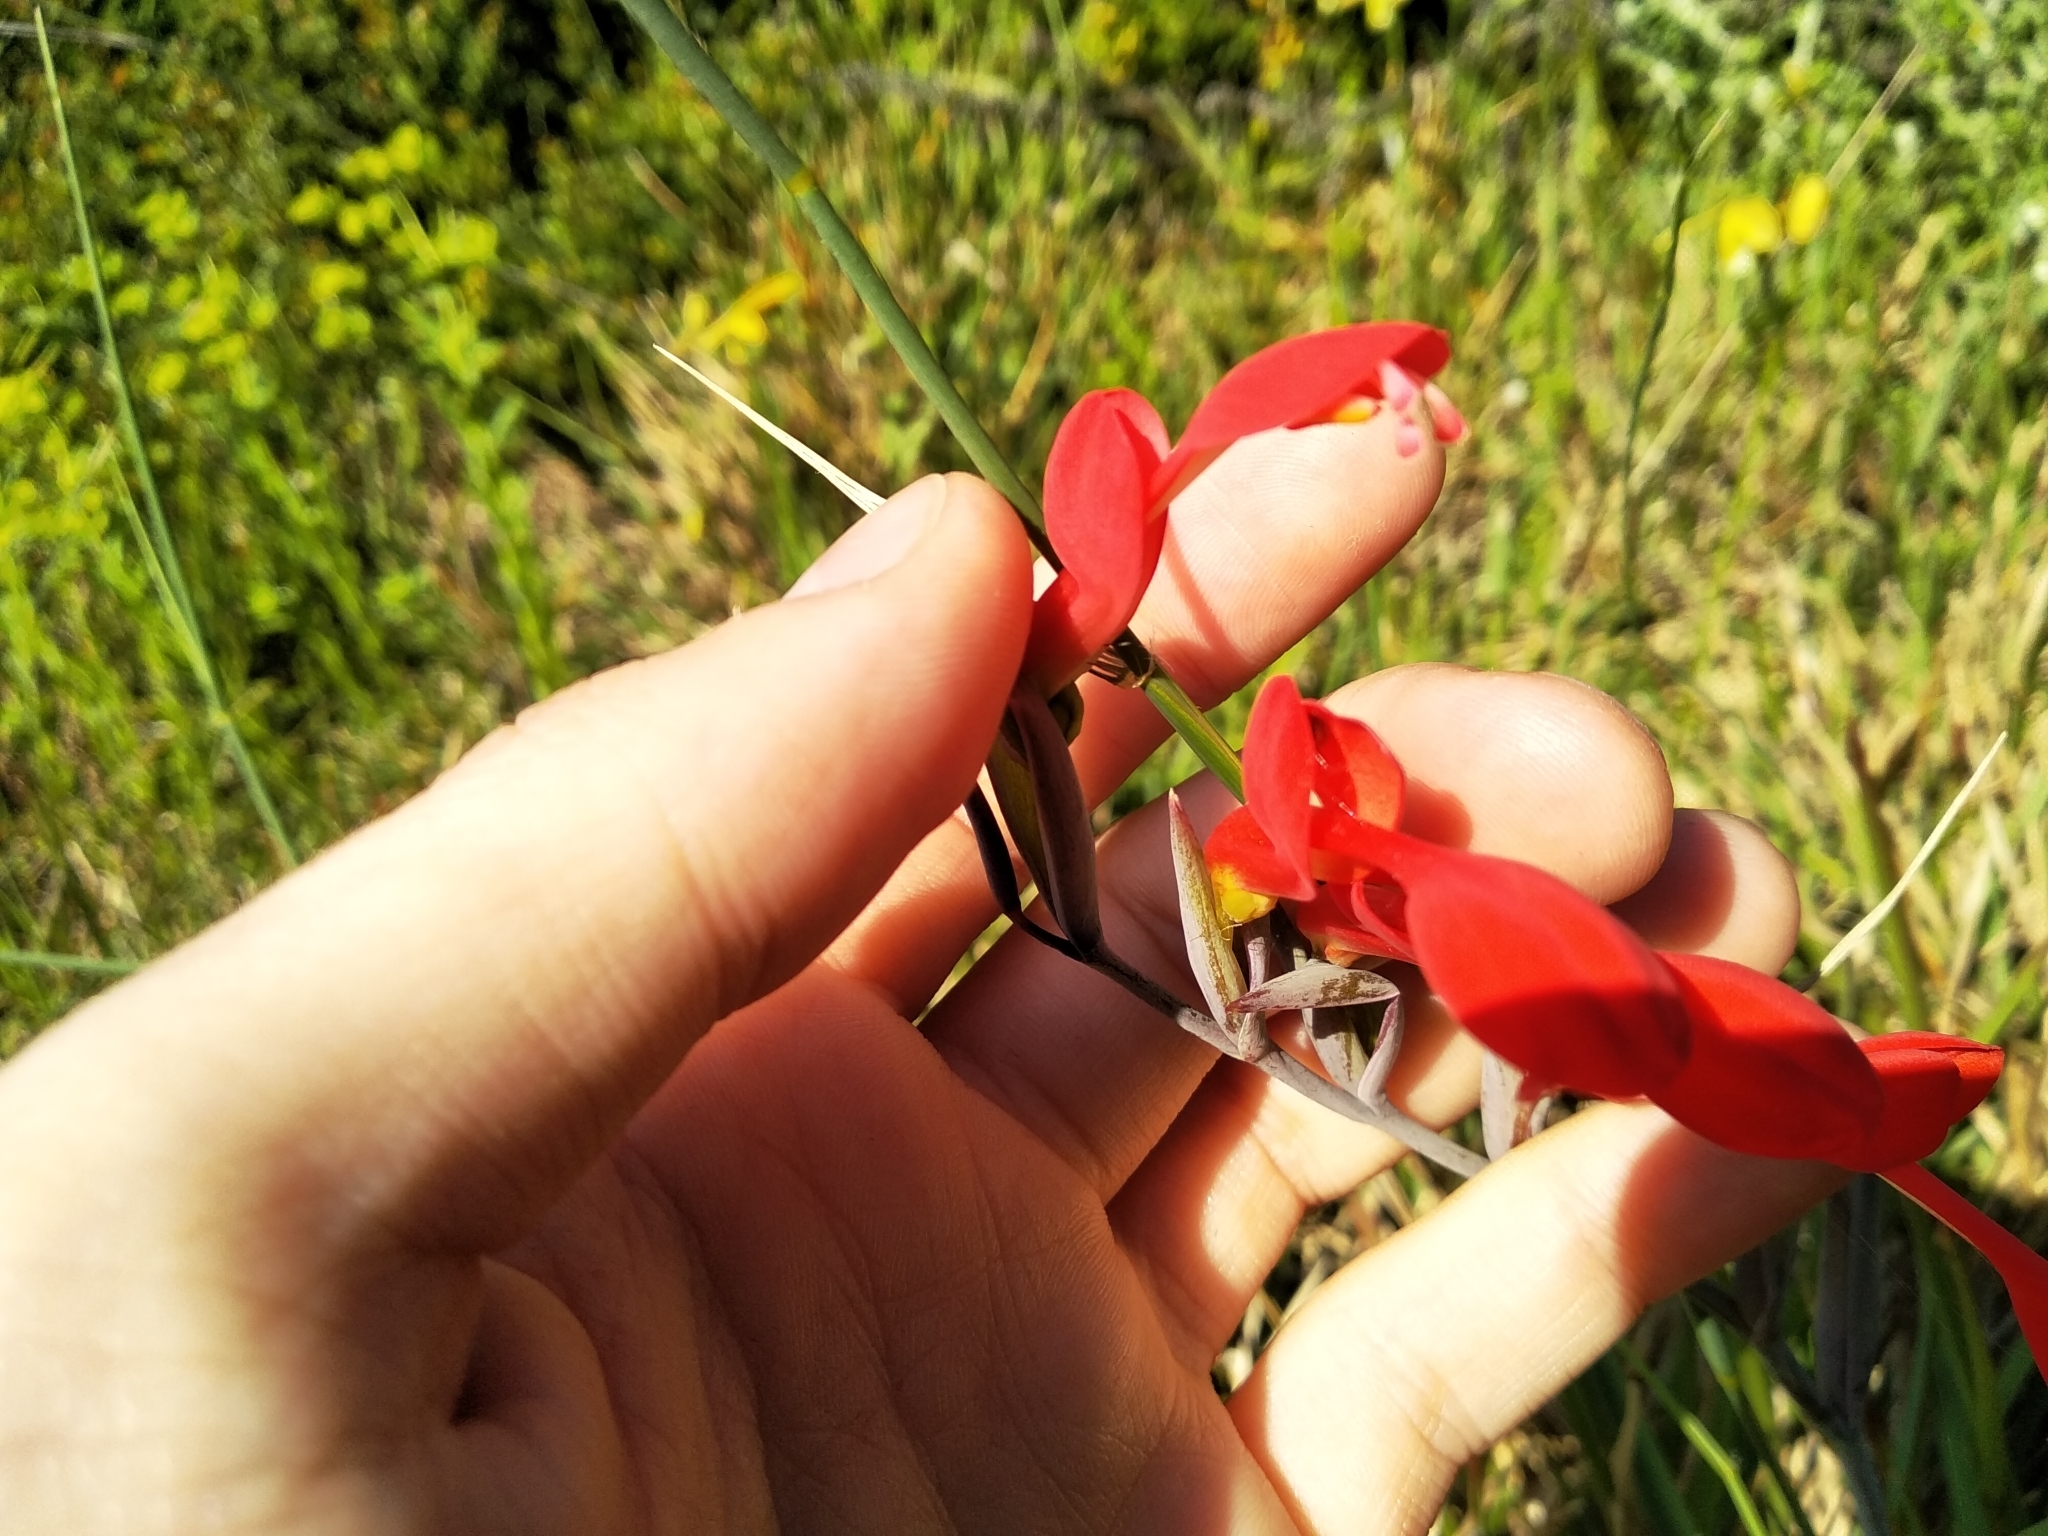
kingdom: Plantae
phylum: Tracheophyta
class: Liliopsida
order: Asparagales
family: Iridaceae
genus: Gladiolus
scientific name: Gladiolus cunonius
